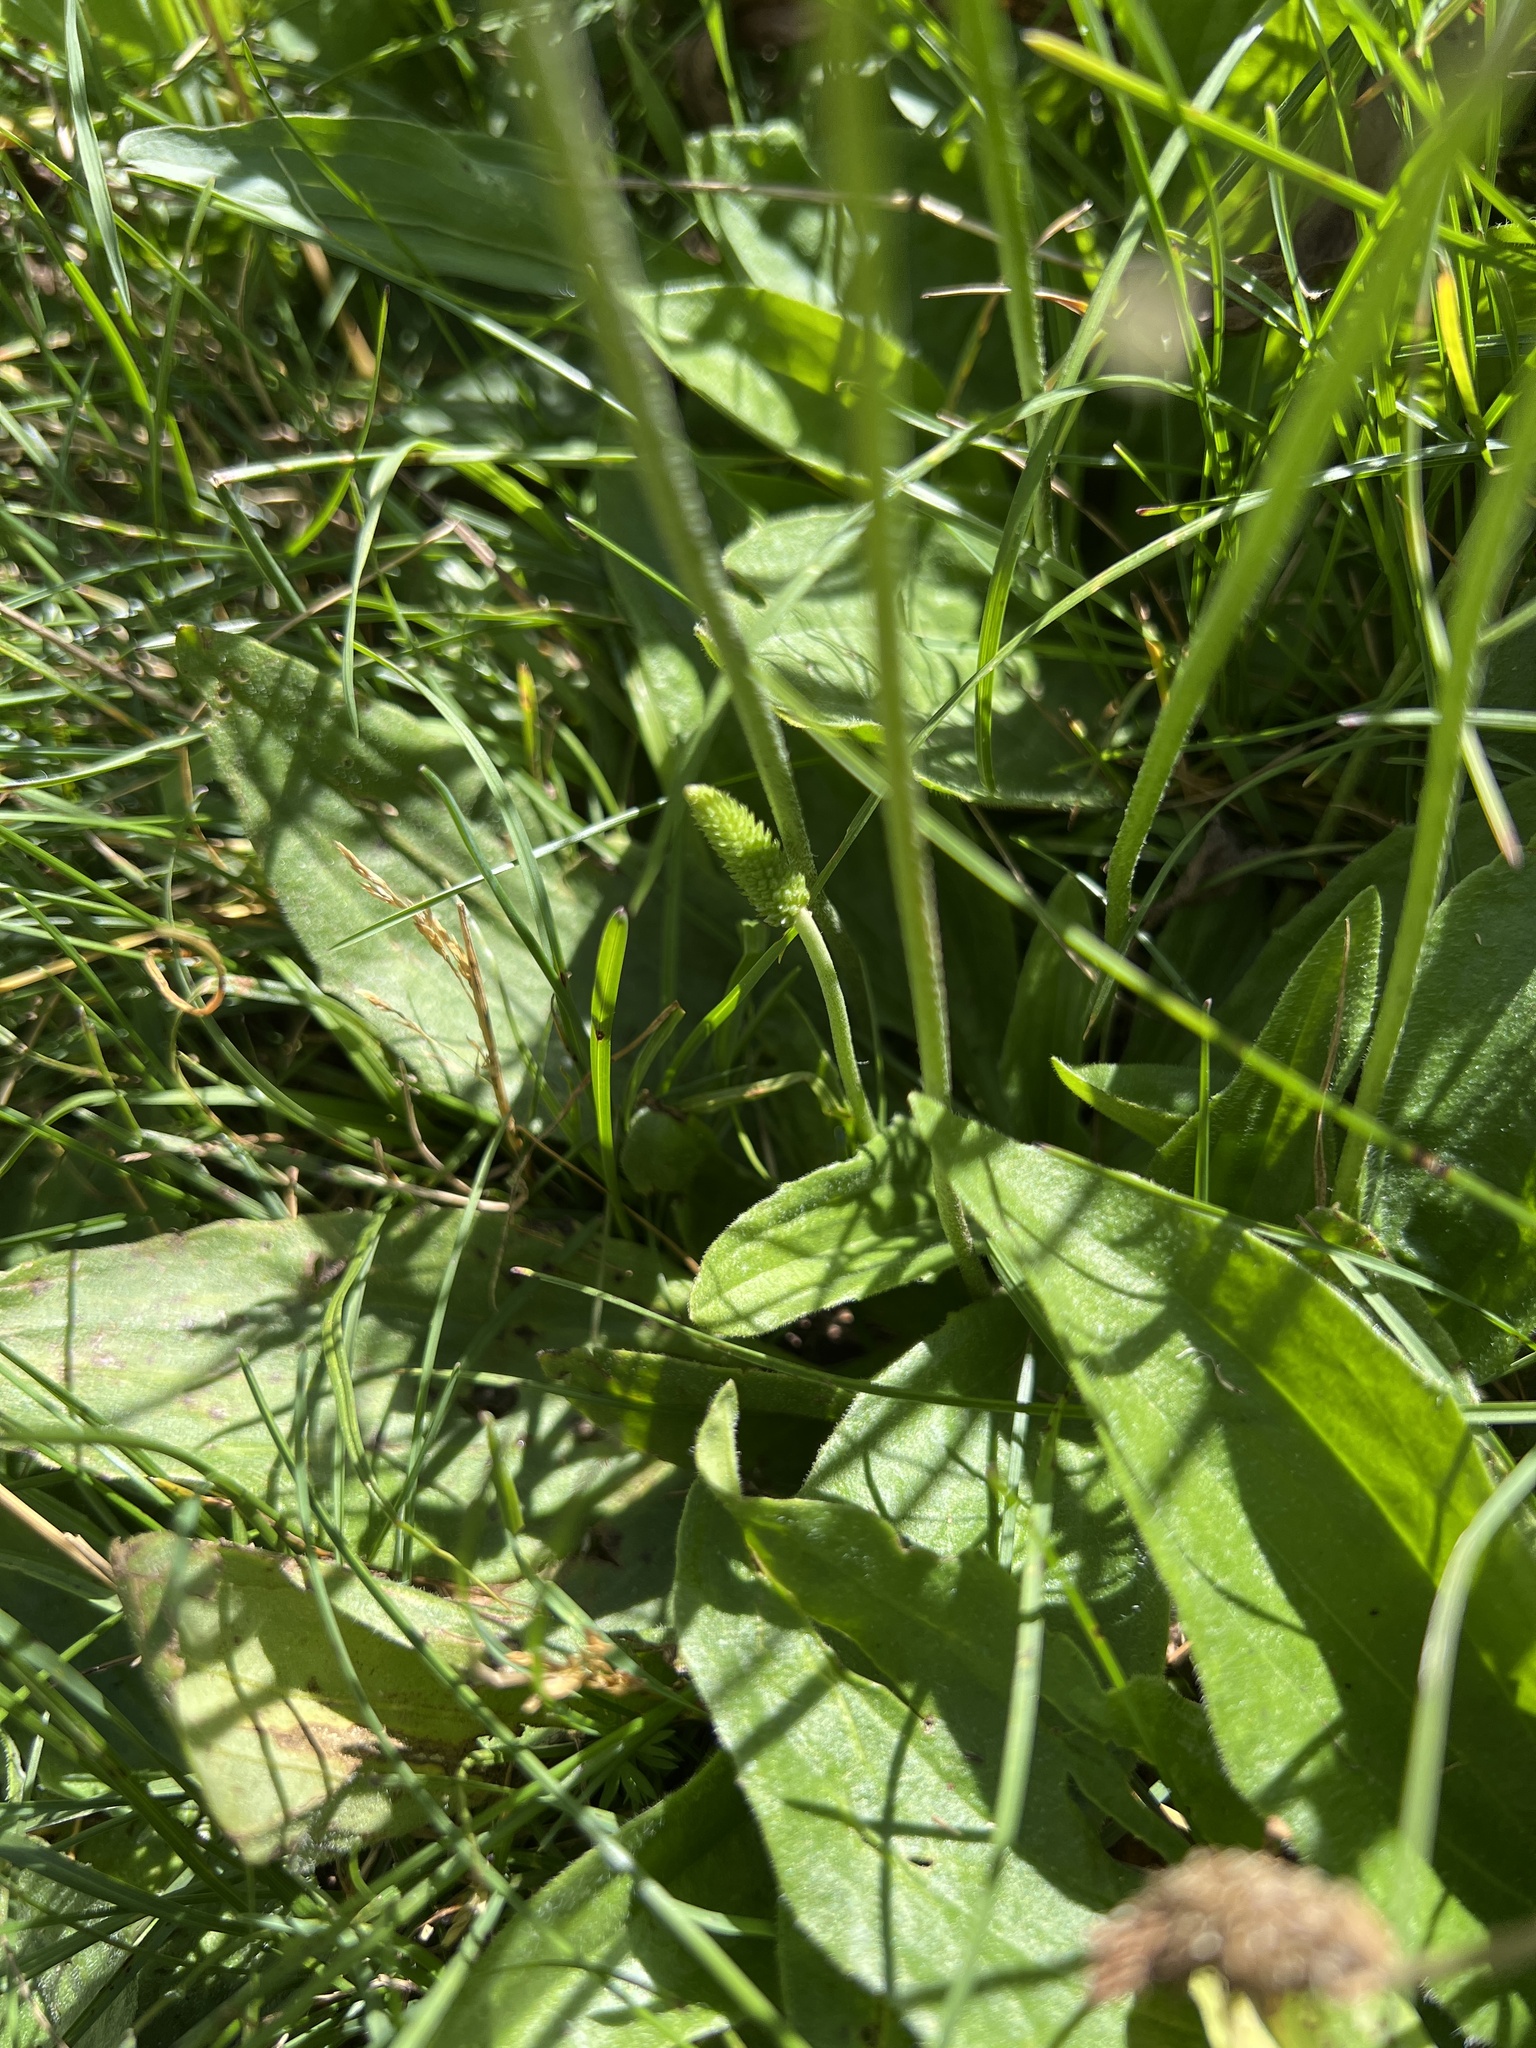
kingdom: Plantae
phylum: Tracheophyta
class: Magnoliopsida
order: Lamiales
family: Plantaginaceae
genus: Plantago
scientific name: Plantago media
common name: Hoary plantain
